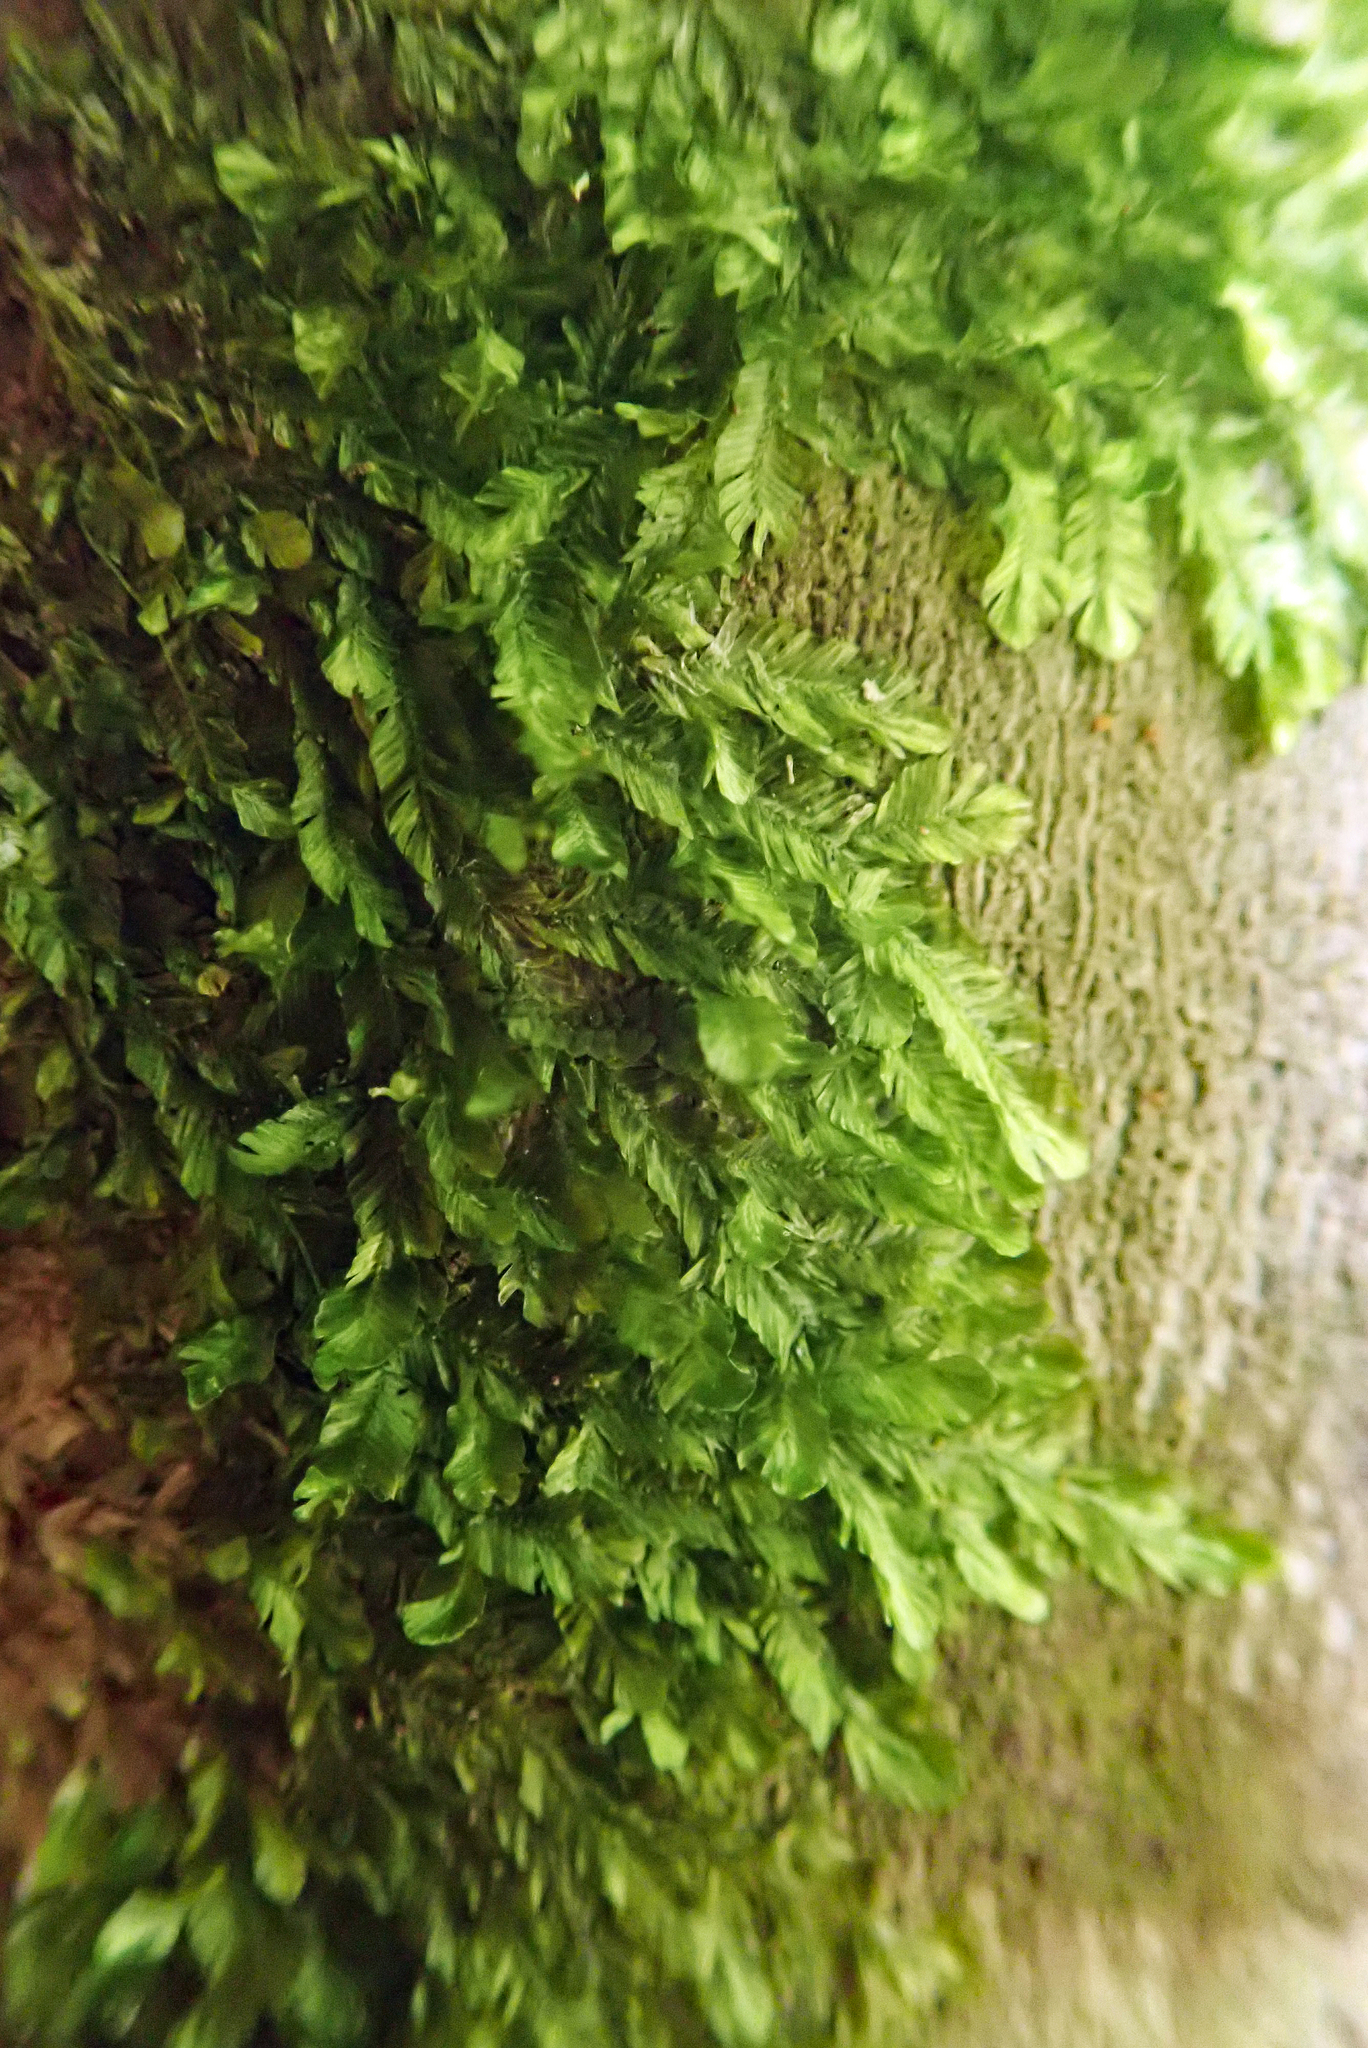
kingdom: Plantae
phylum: Bryophyta
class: Bryopsida
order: Ptychomniales
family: Orthorrhynchiaceae
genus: Orthorrhynchium
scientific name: Orthorrhynchium elegans
